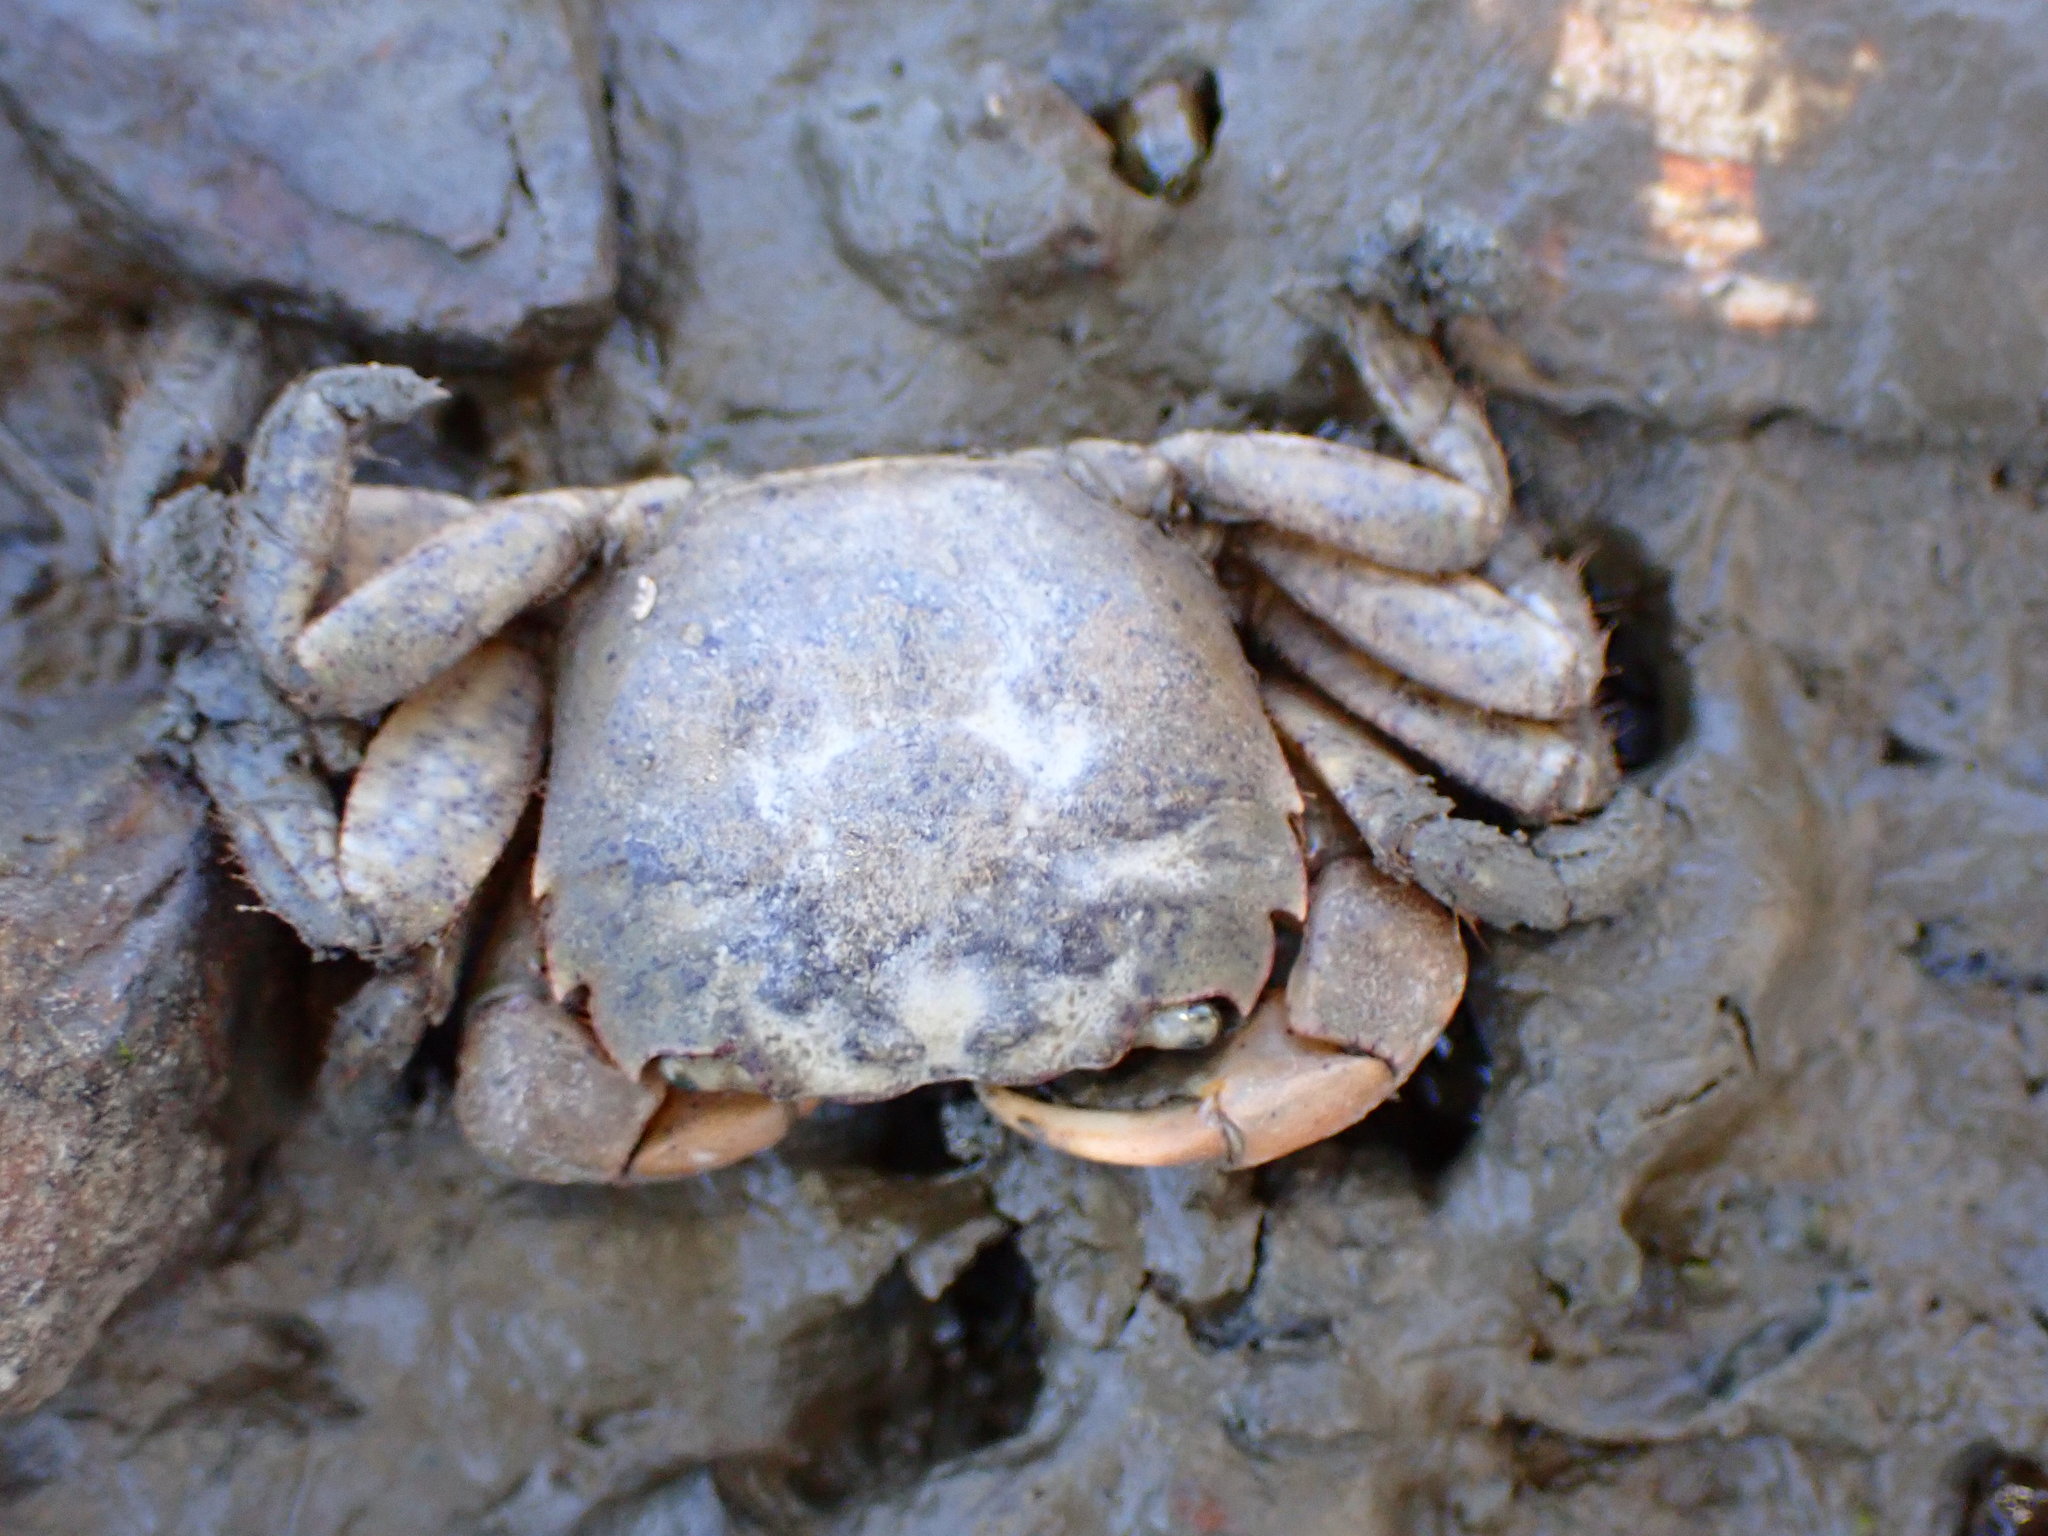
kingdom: Animalia
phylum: Arthropoda
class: Malacostraca
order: Decapoda
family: Varunidae
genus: Hemigrapsus
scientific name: Hemigrapsus oregonensis
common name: Yellow shore crab
